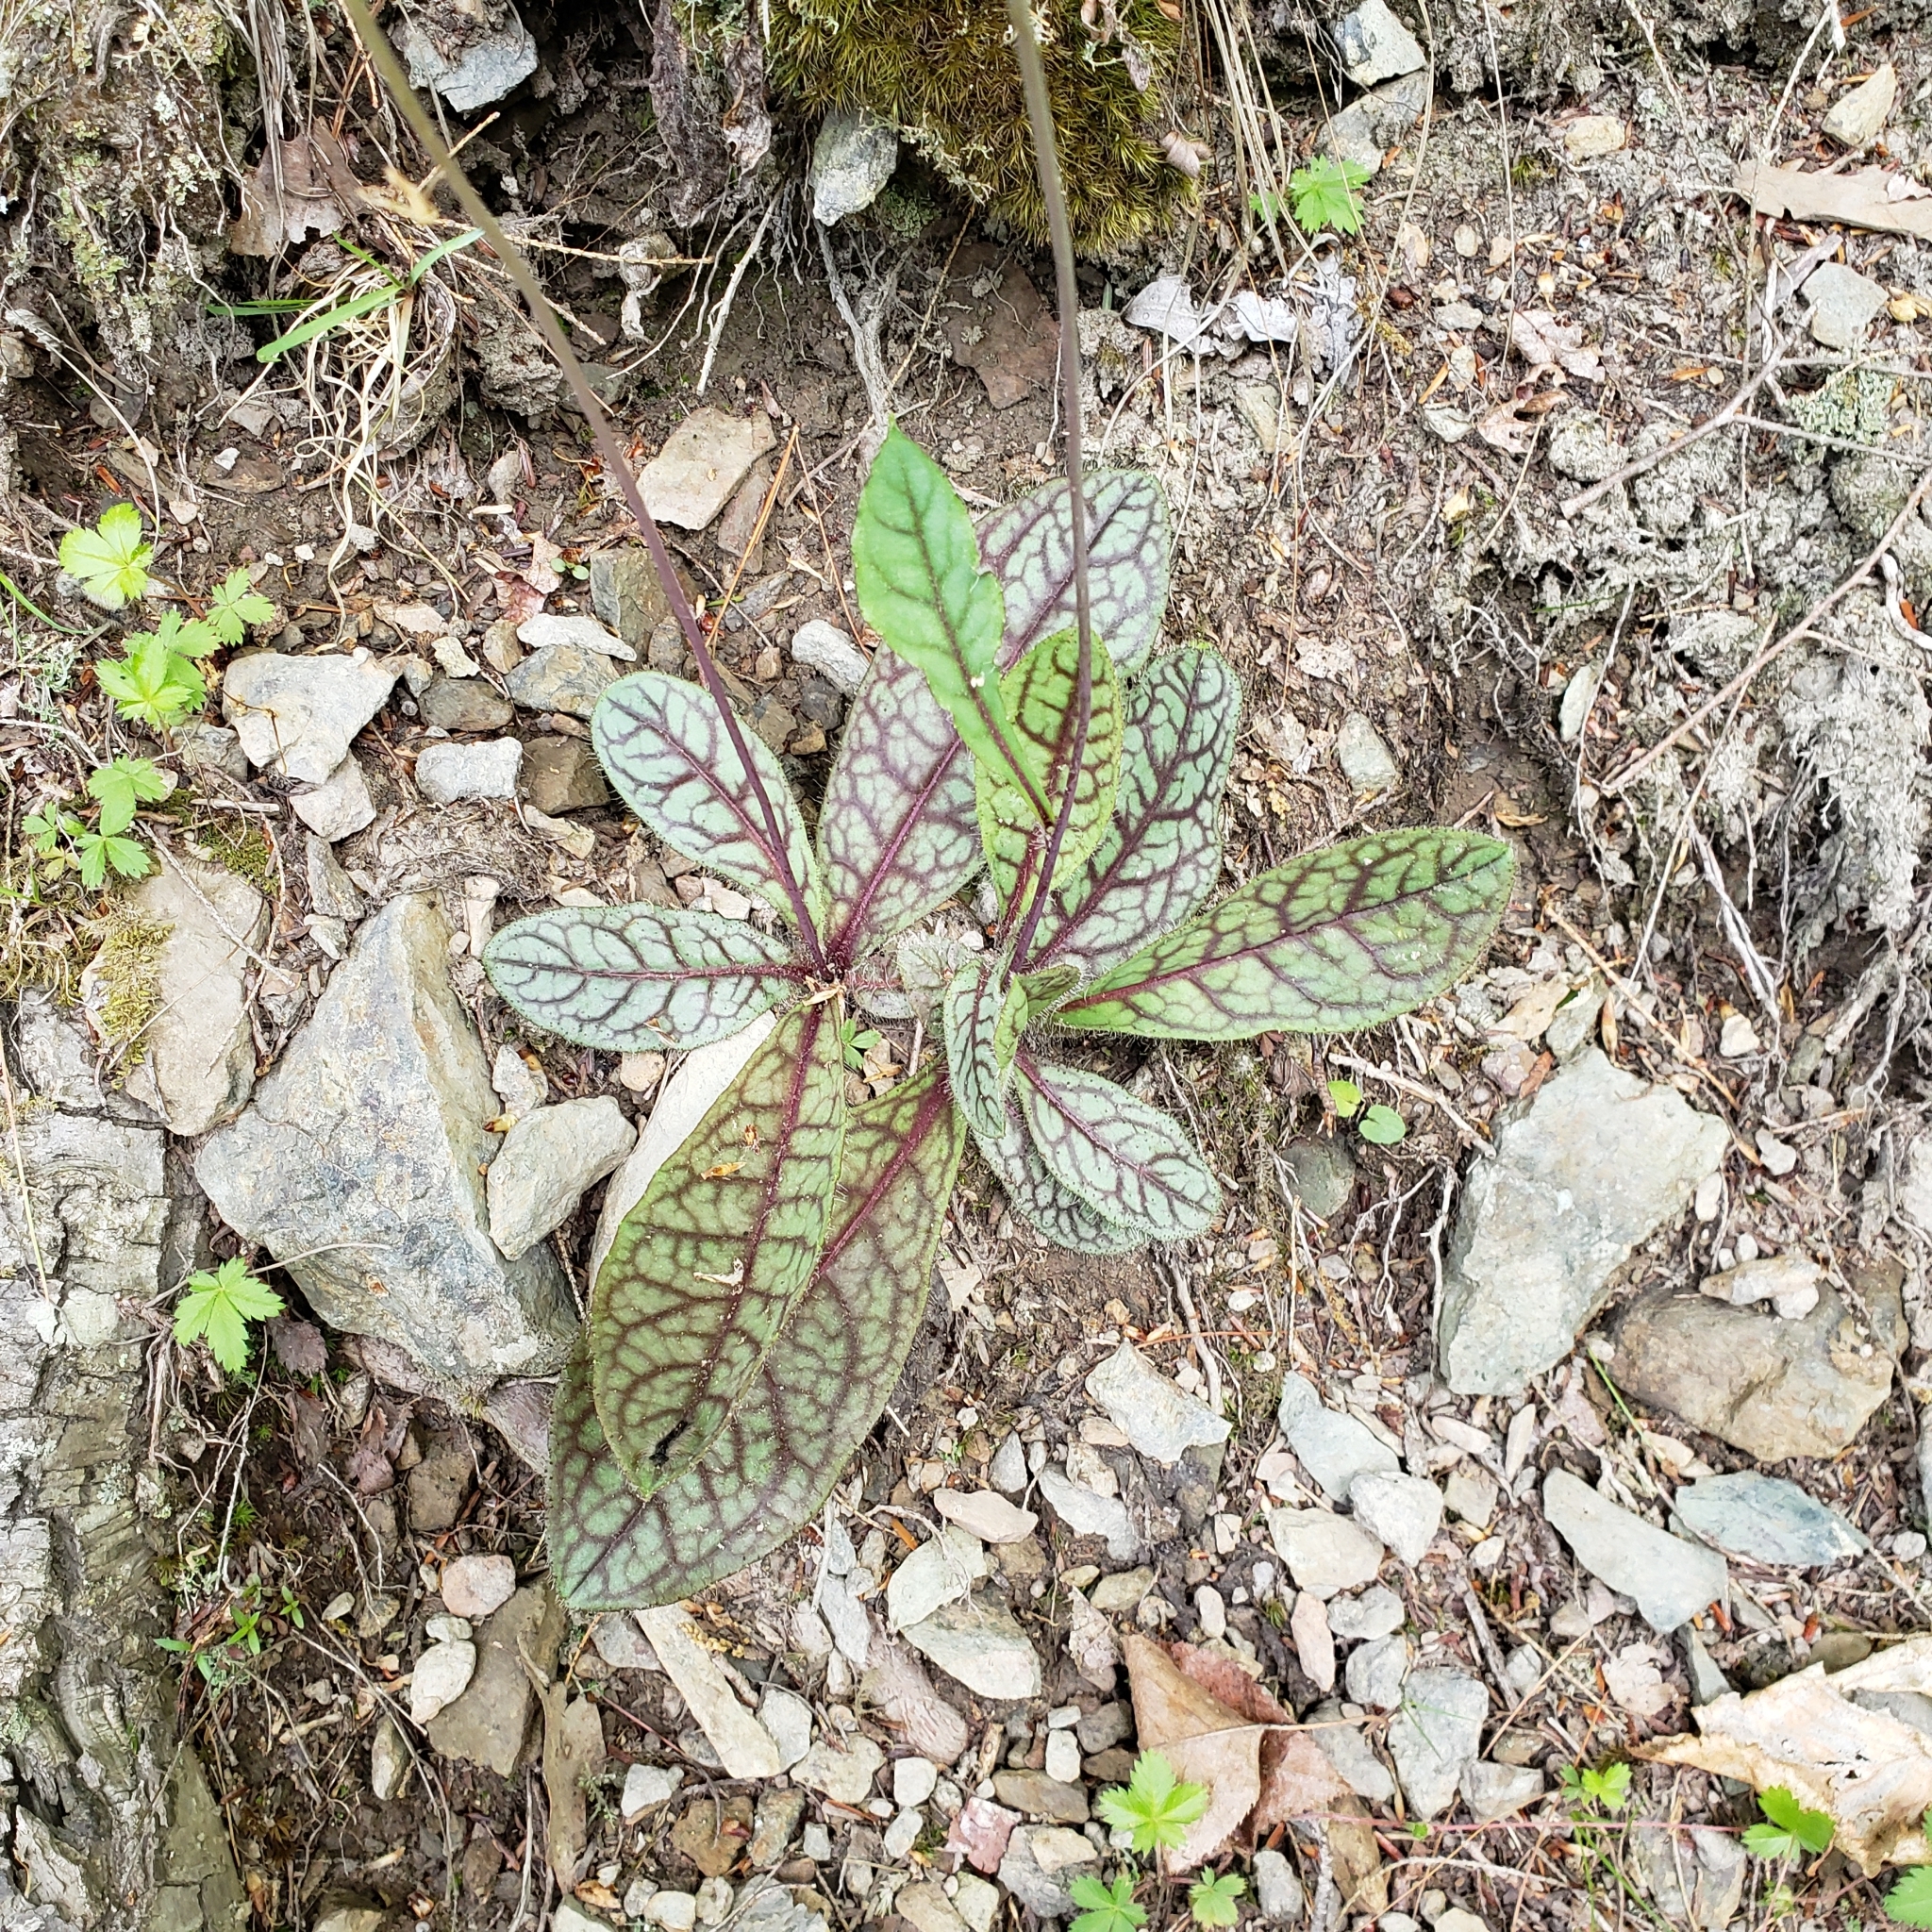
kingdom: Plantae
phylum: Tracheophyta
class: Magnoliopsida
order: Asterales
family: Asteraceae
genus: Hieracium
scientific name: Hieracium venosum
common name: Rattlesnake hawkweed
